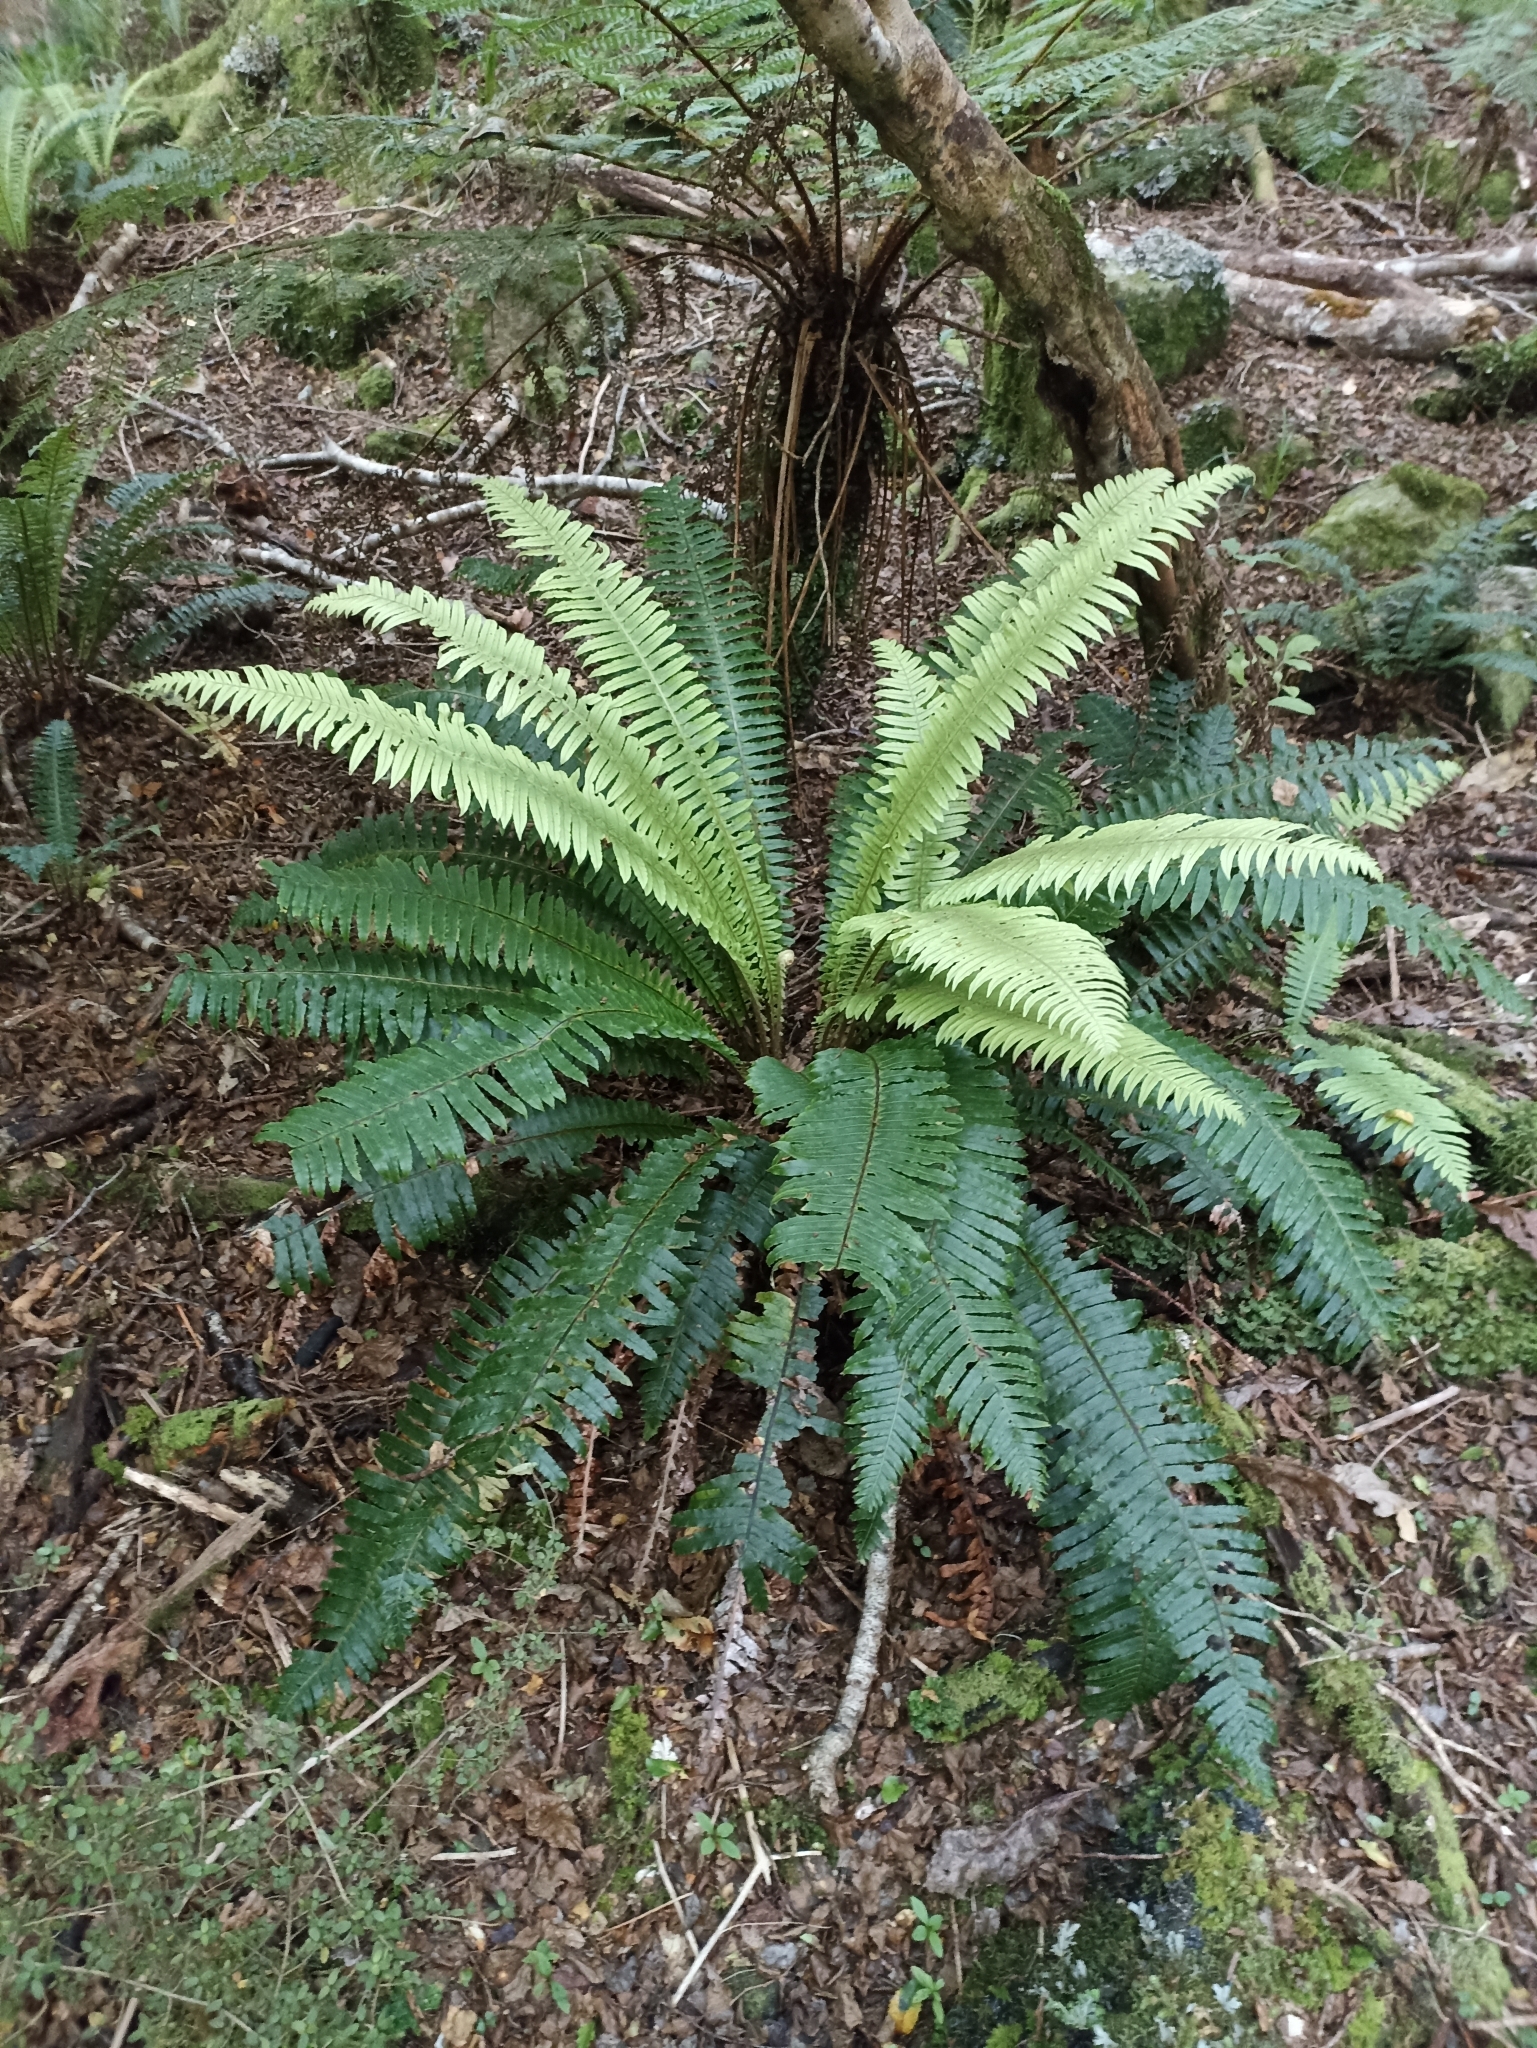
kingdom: Plantae
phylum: Tracheophyta
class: Polypodiopsida
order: Polypodiales
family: Blechnaceae
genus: Lomaria
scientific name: Lomaria discolor
